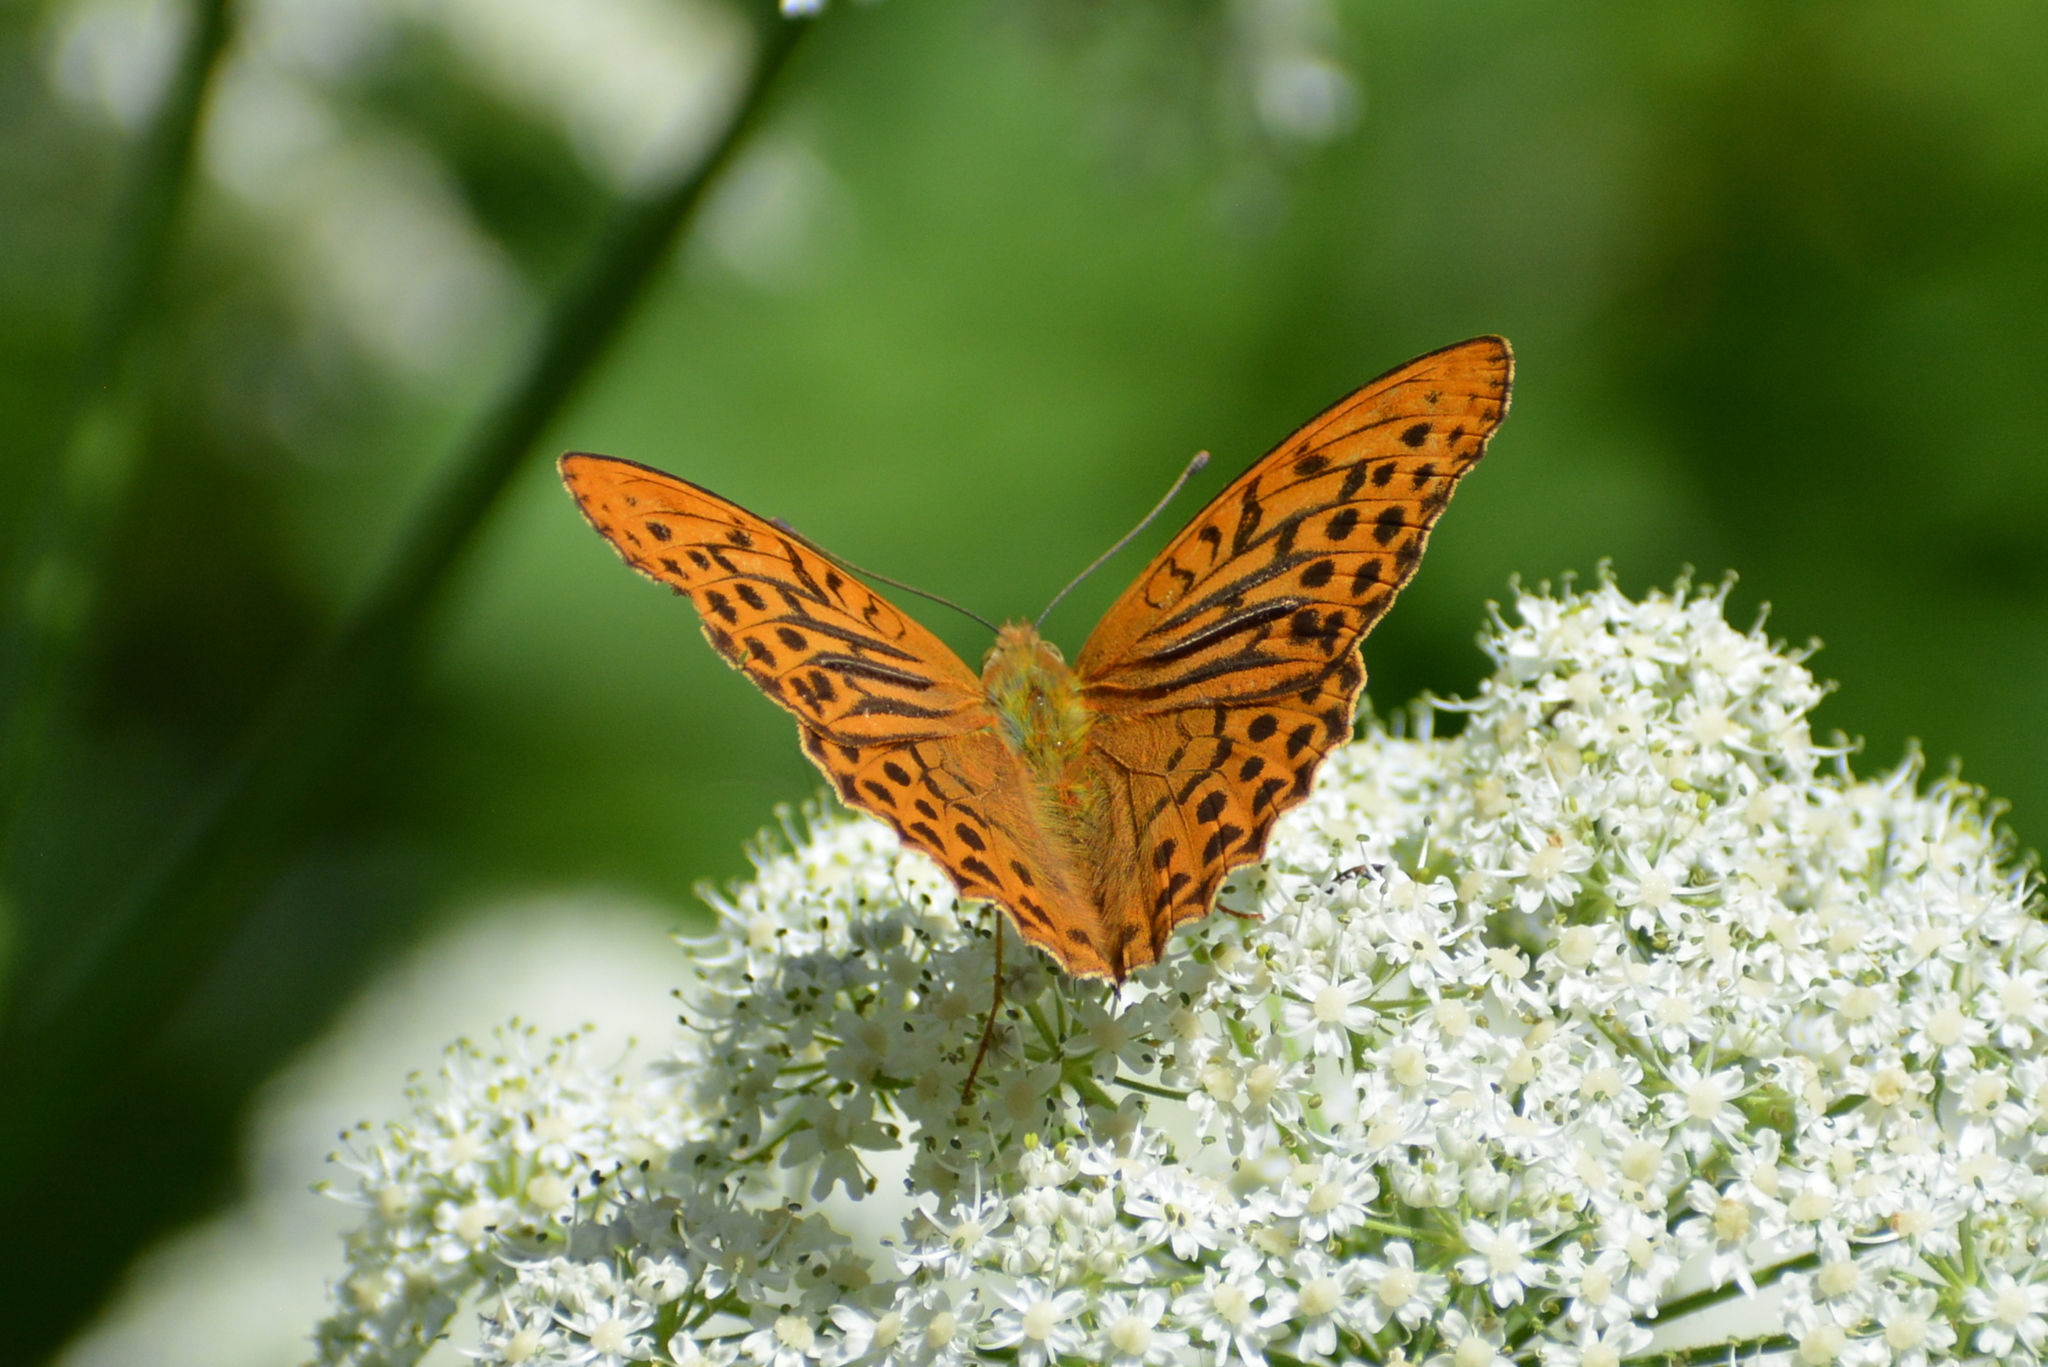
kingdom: Animalia
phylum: Arthropoda
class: Insecta
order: Lepidoptera
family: Nymphalidae
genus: Argynnis
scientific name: Argynnis paphia
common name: Silver-washed fritillary
